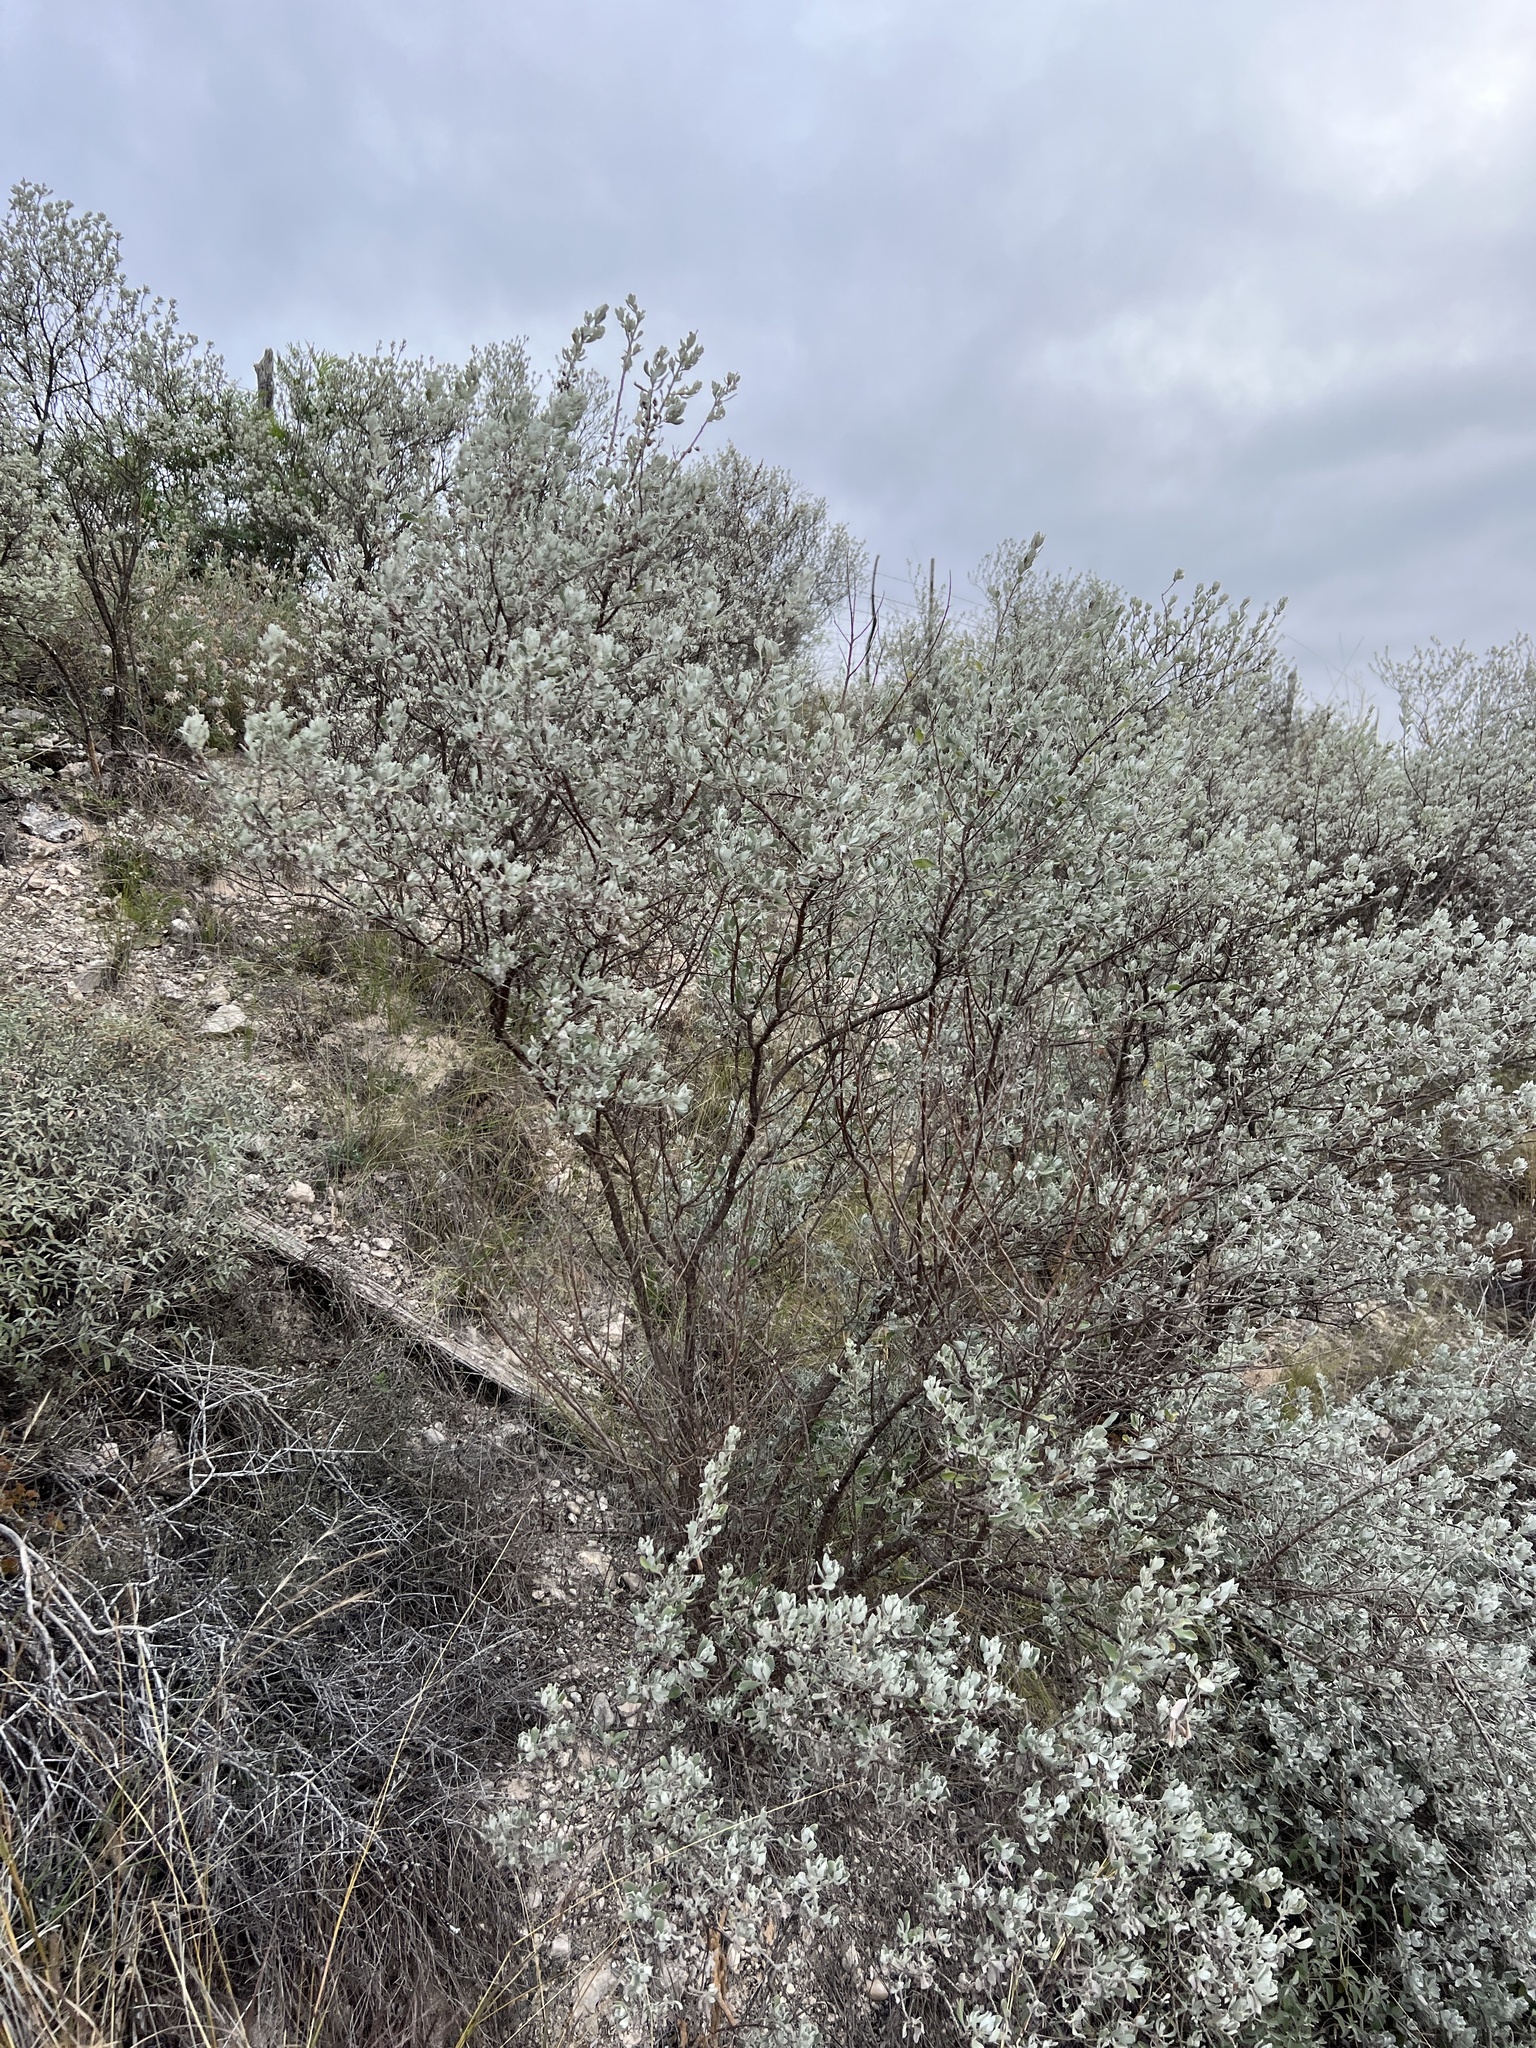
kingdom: Plantae
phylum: Tracheophyta
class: Magnoliopsida
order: Lamiales
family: Scrophulariaceae
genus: Leucophyllum
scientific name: Leucophyllum frutescens
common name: Texas silverleaf
